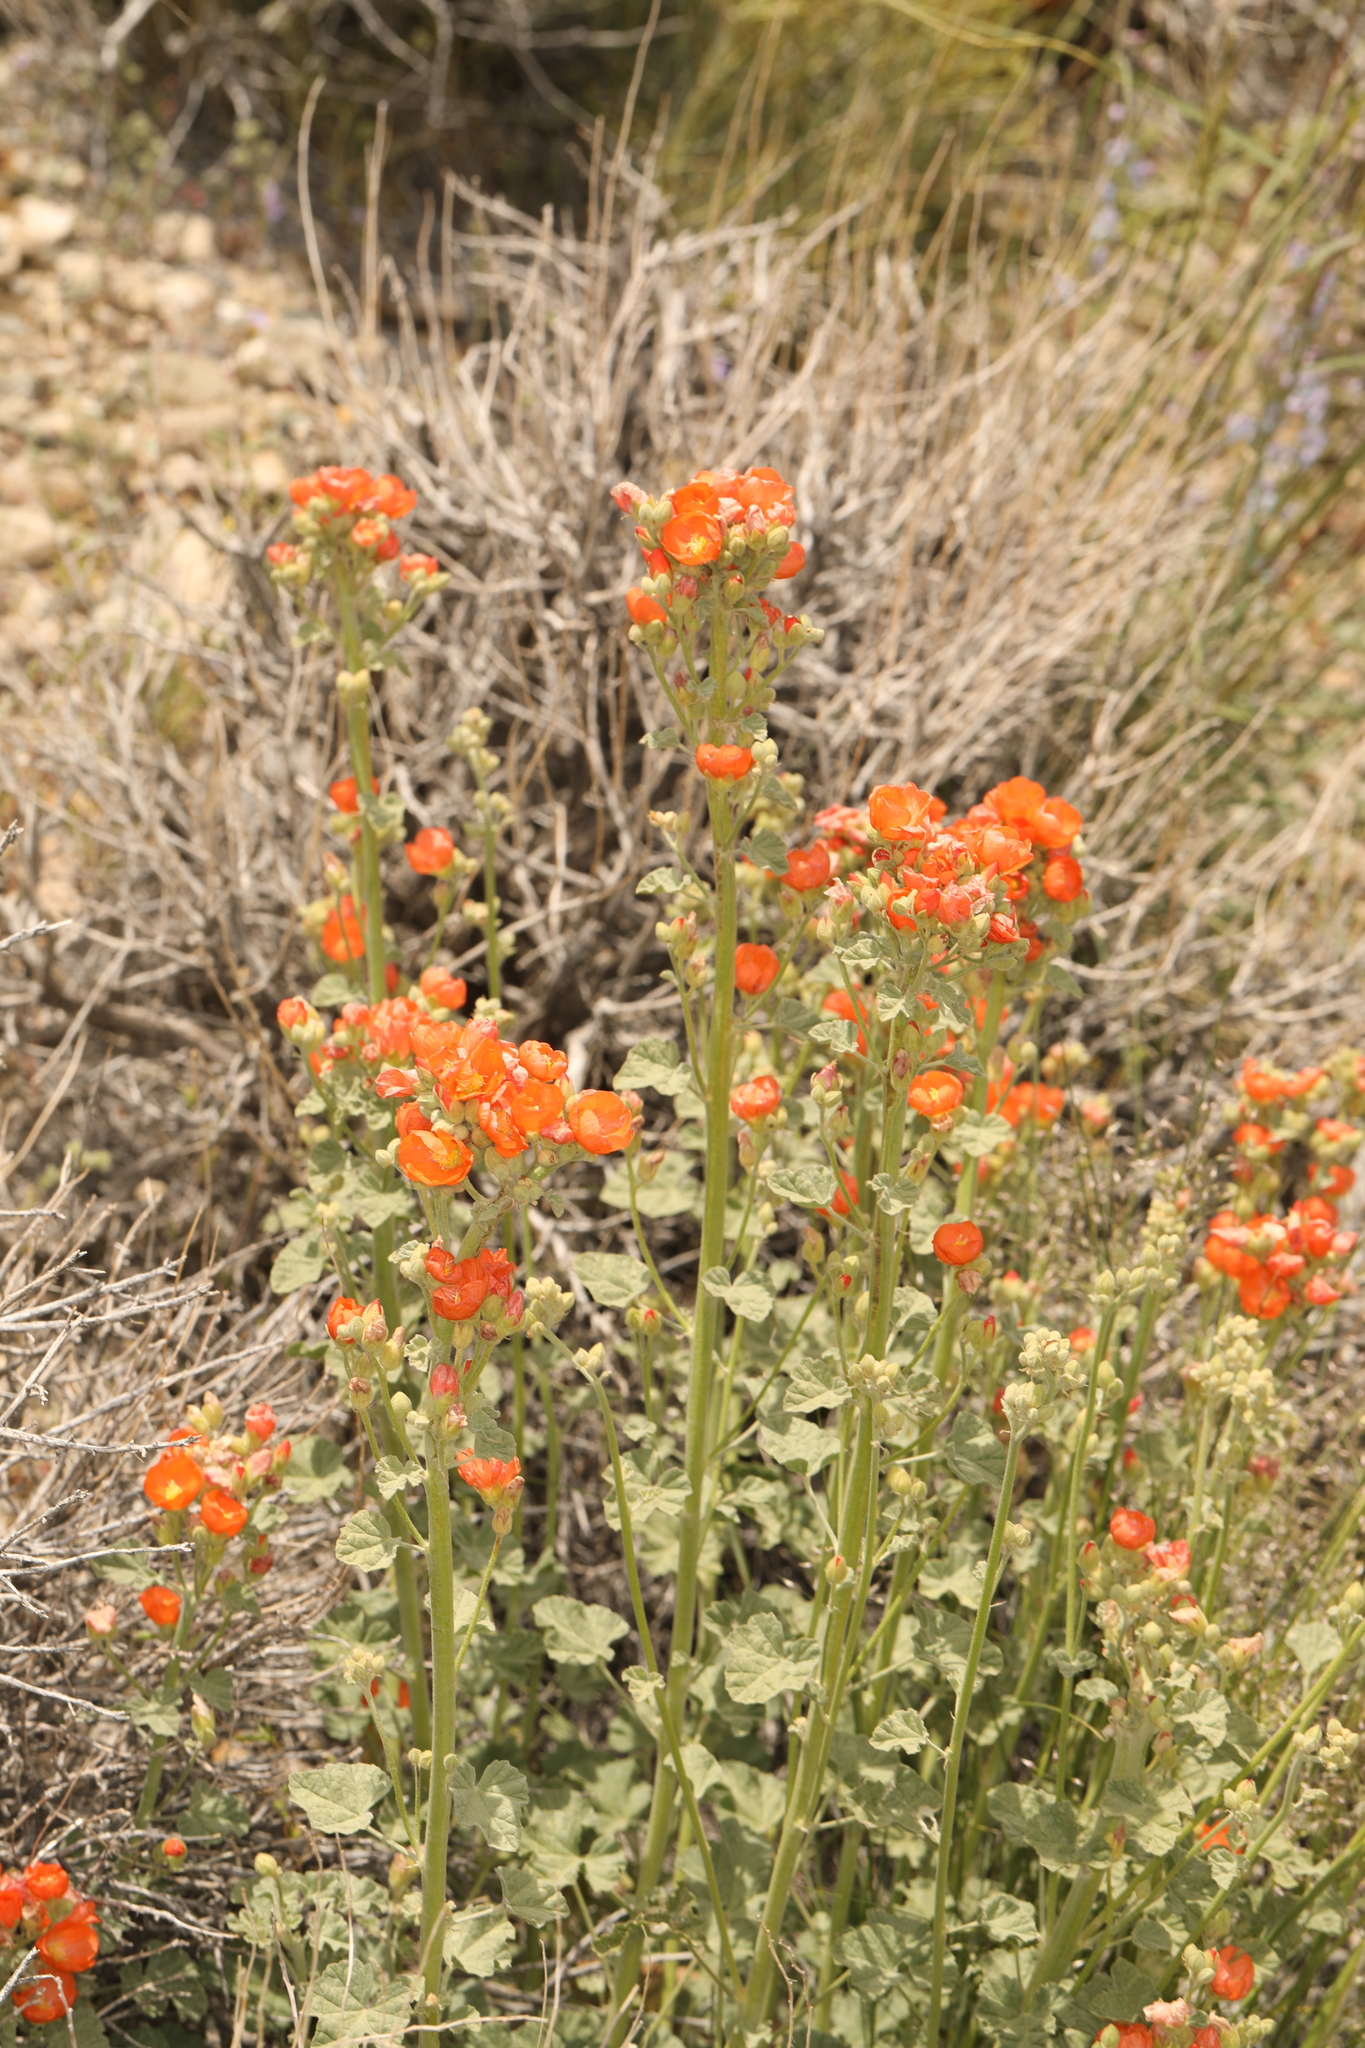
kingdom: Plantae
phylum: Tracheophyta
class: Magnoliopsida
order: Malvales
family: Malvaceae
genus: Sphaeralcea
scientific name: Sphaeralcea ambigua
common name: Apricot globe-mallow
